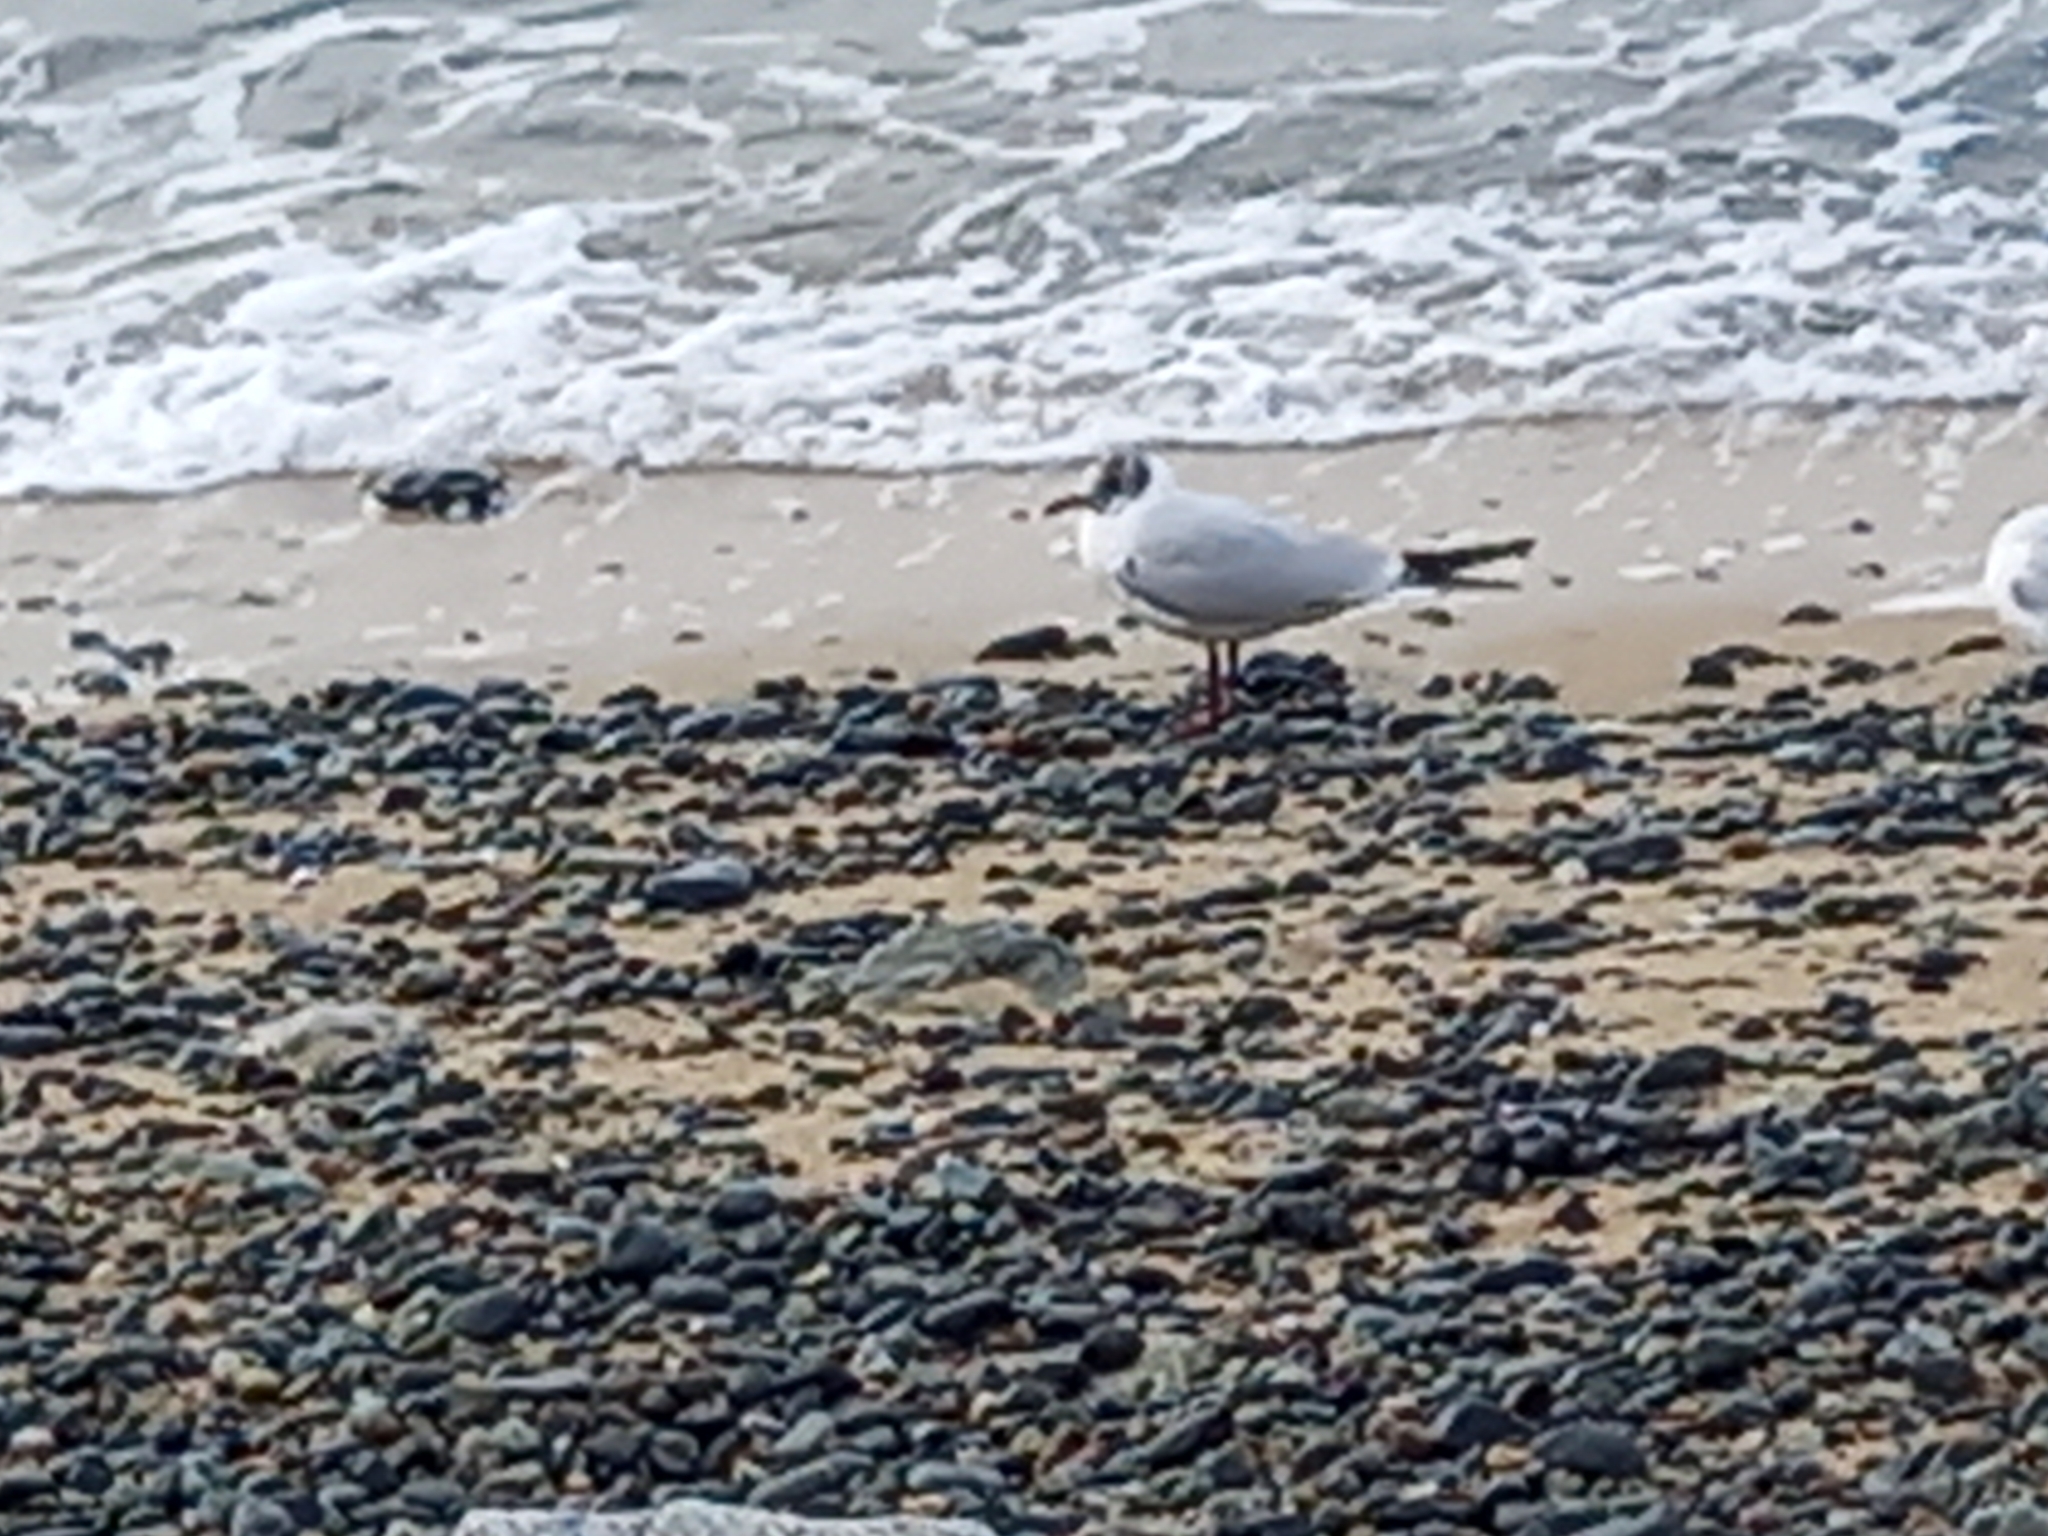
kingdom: Animalia
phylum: Chordata
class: Aves
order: Charadriiformes
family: Laridae
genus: Chroicocephalus
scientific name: Chroicocephalus ridibundus
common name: Black-headed gull
